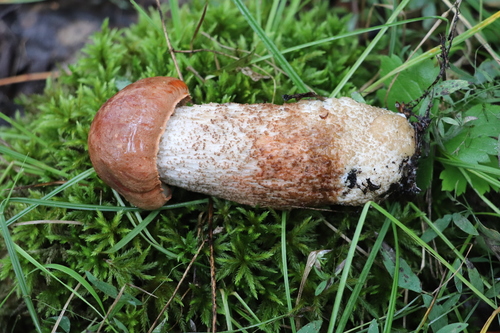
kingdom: Fungi
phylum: Basidiomycota
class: Agaricomycetes
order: Boletales
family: Boletaceae
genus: Leccinum
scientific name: Leccinum aurantiacum
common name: Orange bolete
